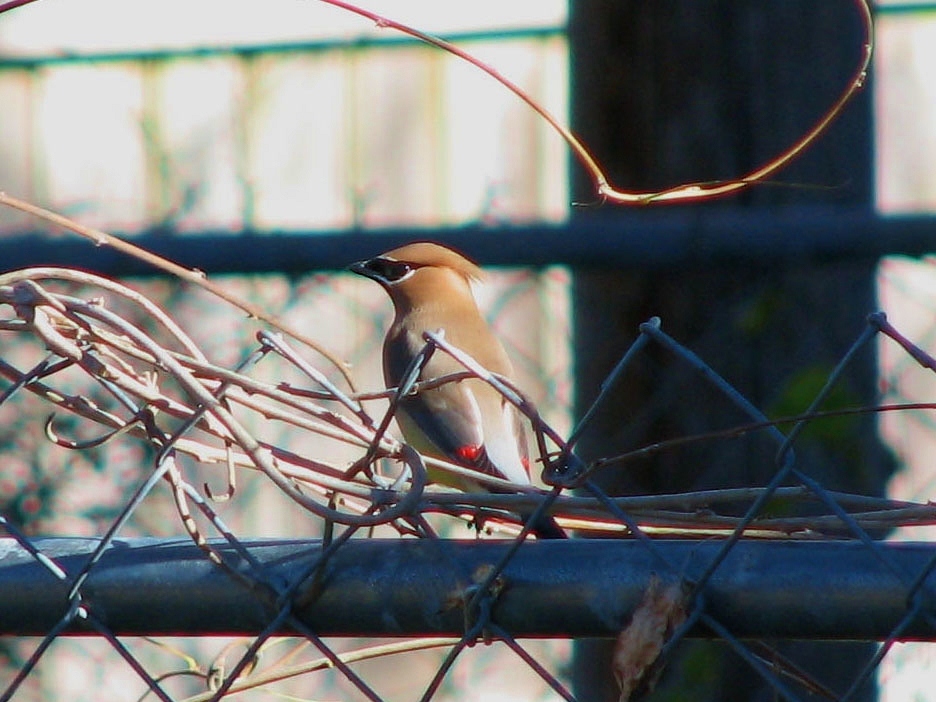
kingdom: Animalia
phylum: Chordata
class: Aves
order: Passeriformes
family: Bombycillidae
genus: Bombycilla
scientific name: Bombycilla cedrorum
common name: Cedar waxwing
